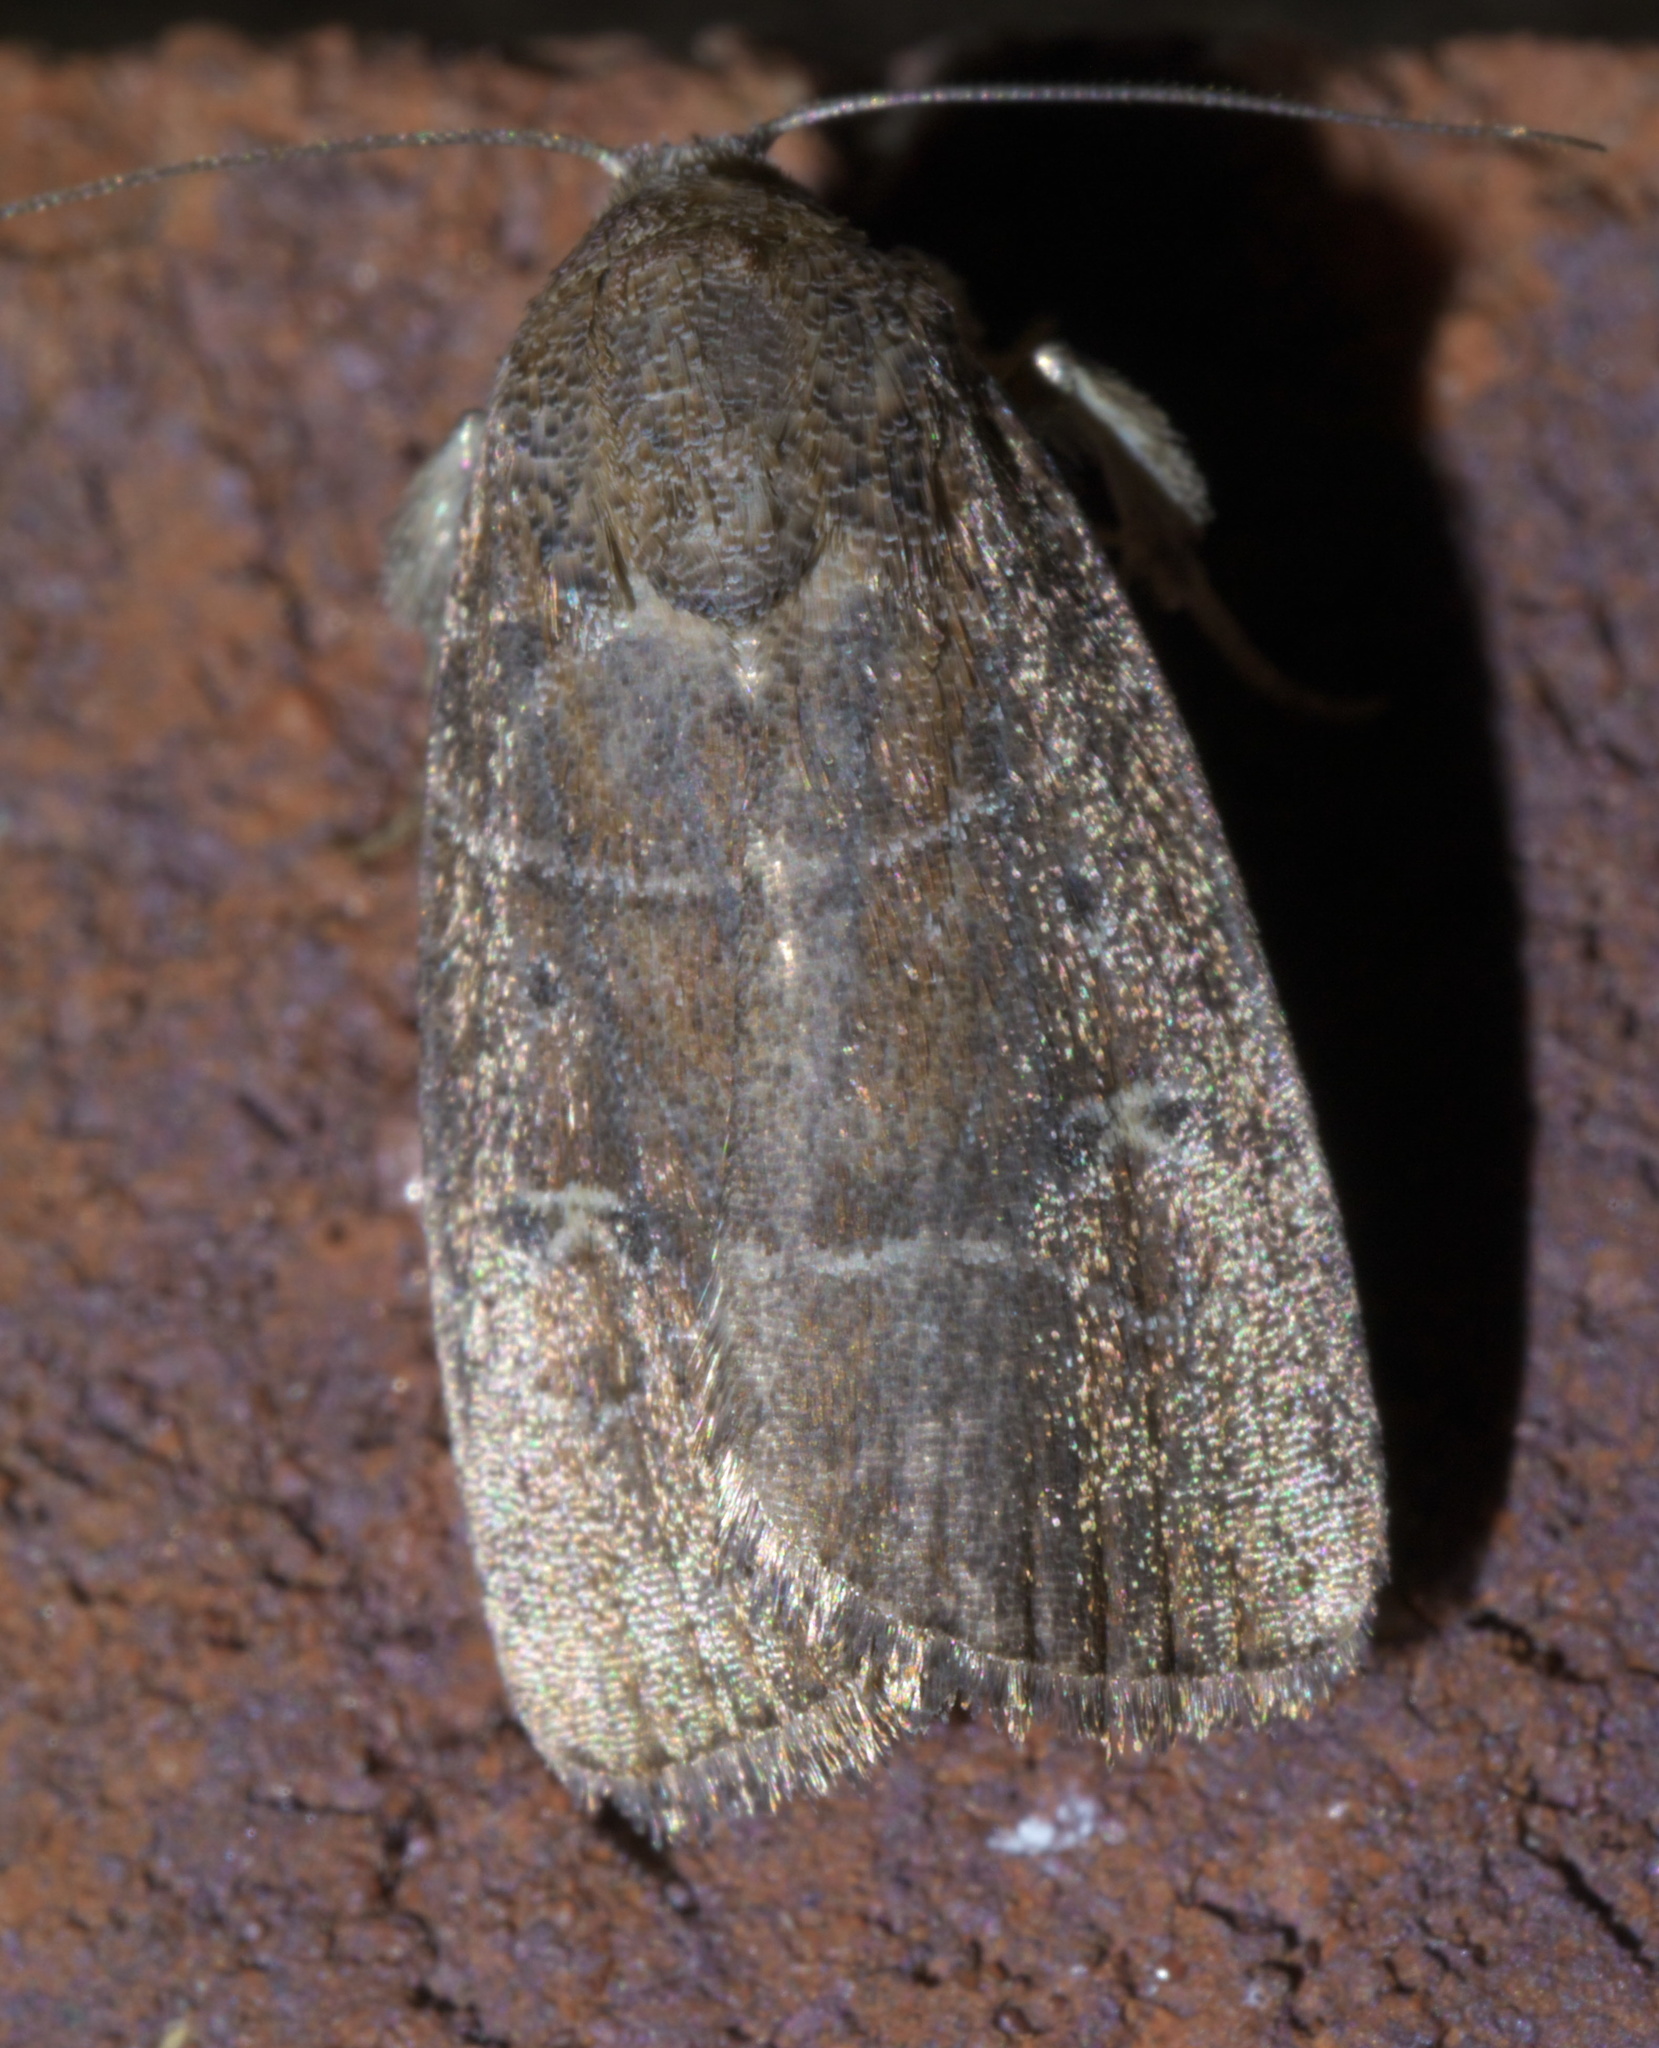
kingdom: Animalia
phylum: Arthropoda
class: Insecta
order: Lepidoptera
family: Noctuidae
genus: Elaphria
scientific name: Elaphria grata
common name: Grateful midget moth
